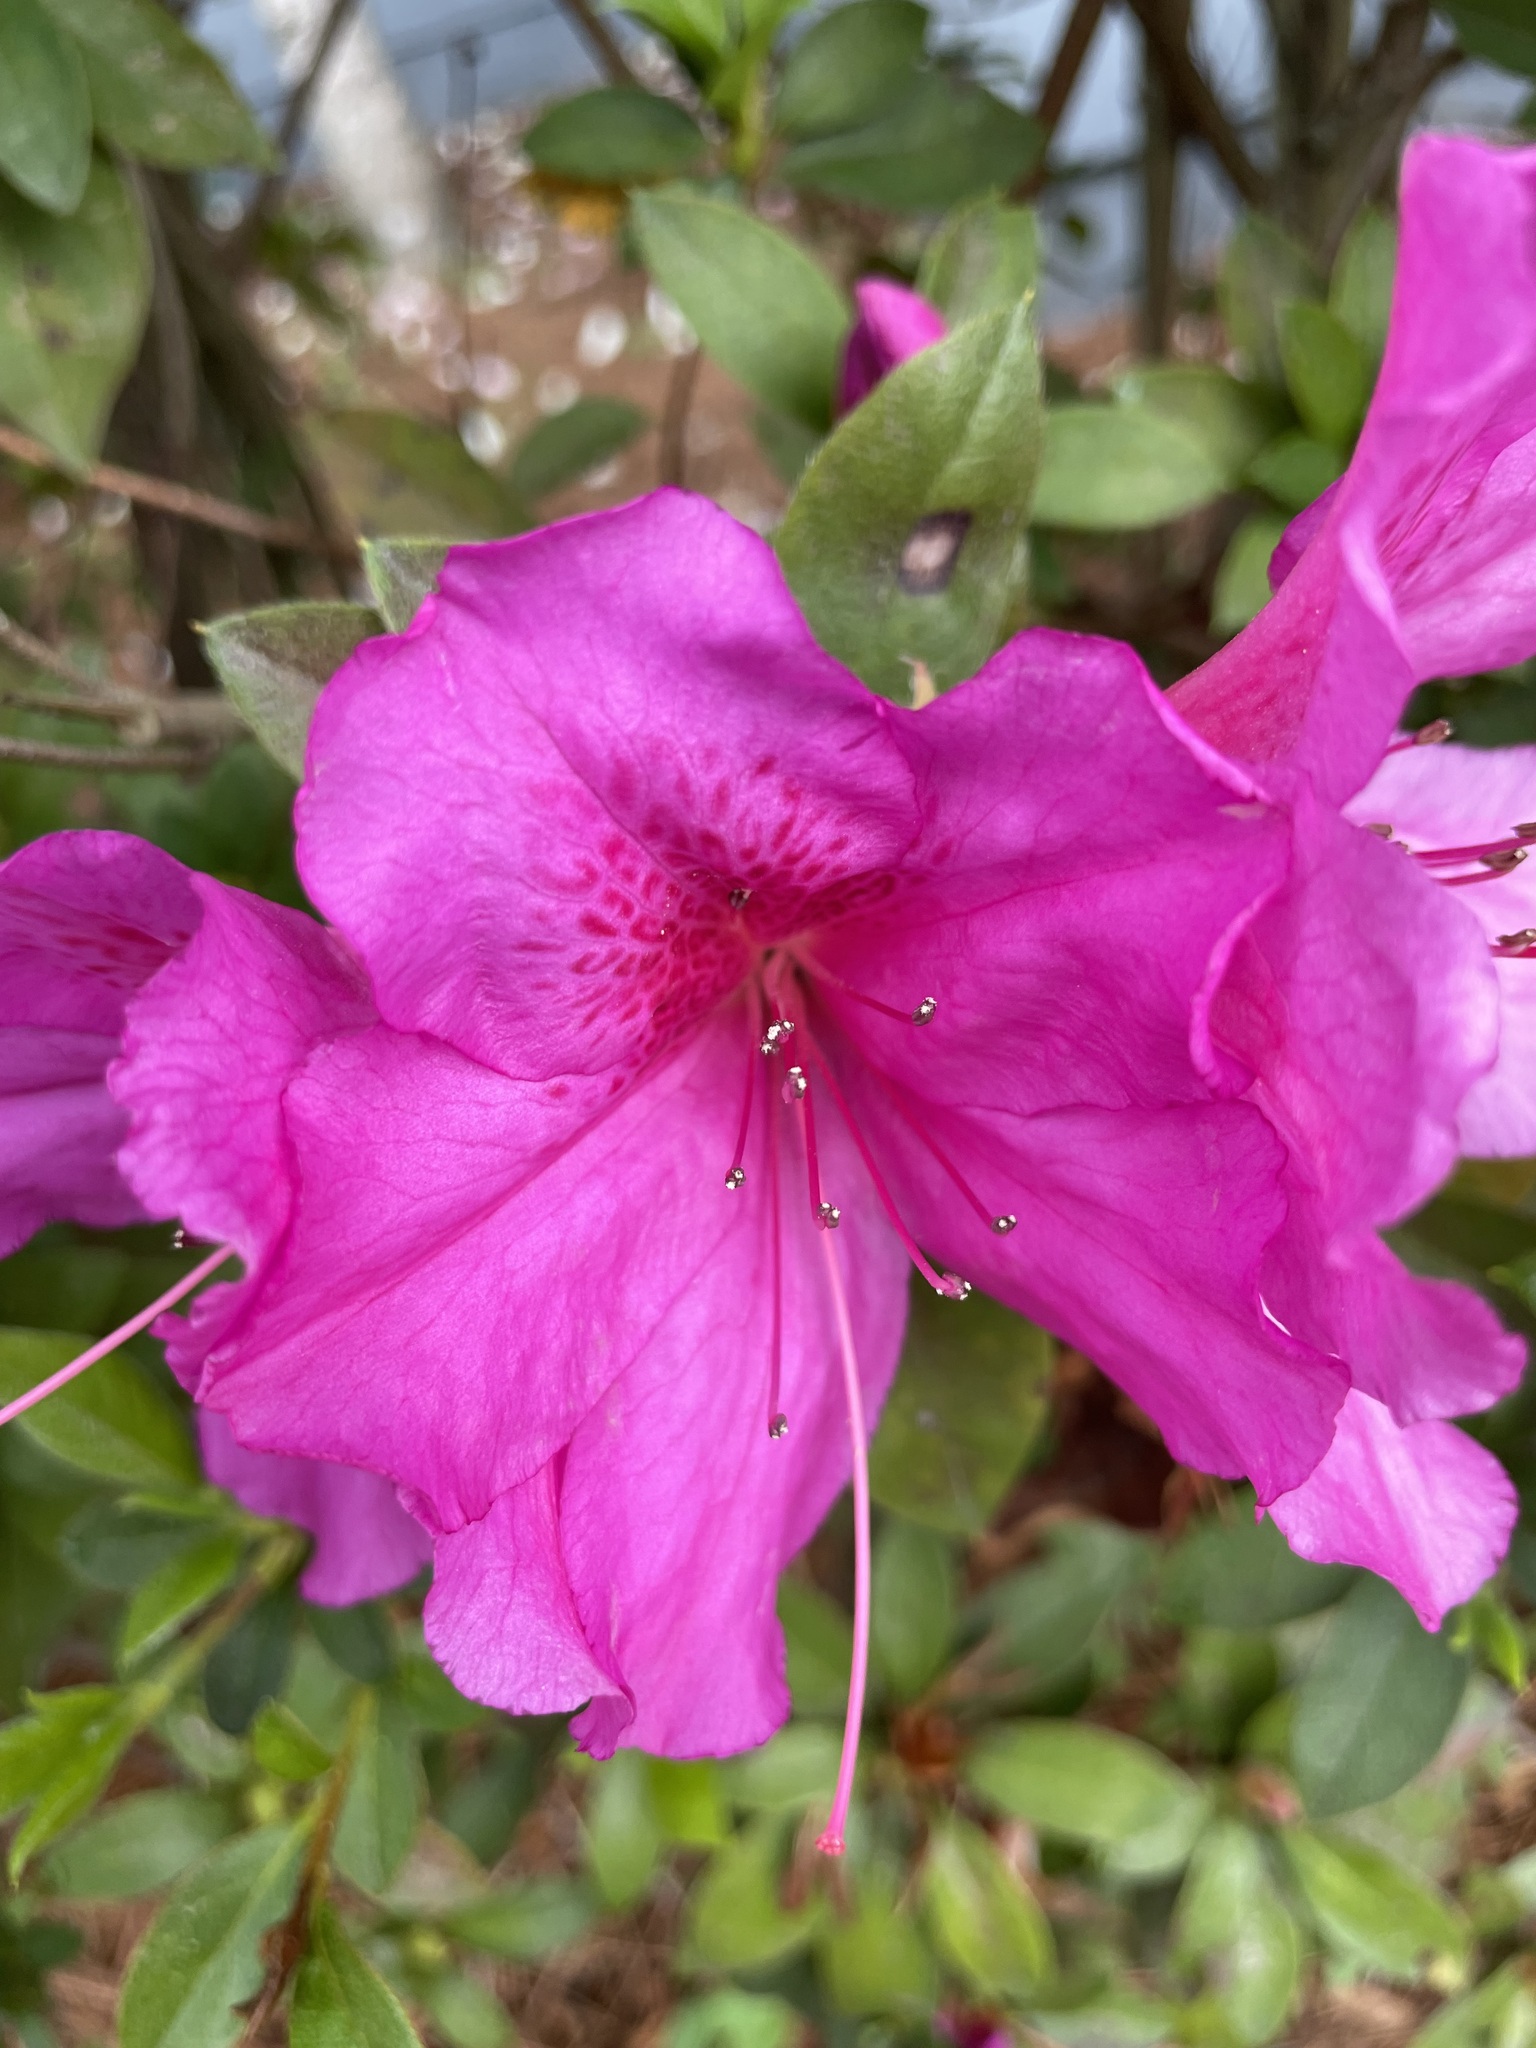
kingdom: Plantae
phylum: Tracheophyta
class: Magnoliopsida
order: Ericales
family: Ericaceae
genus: Rhododendron
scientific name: Rhododendron indicum
